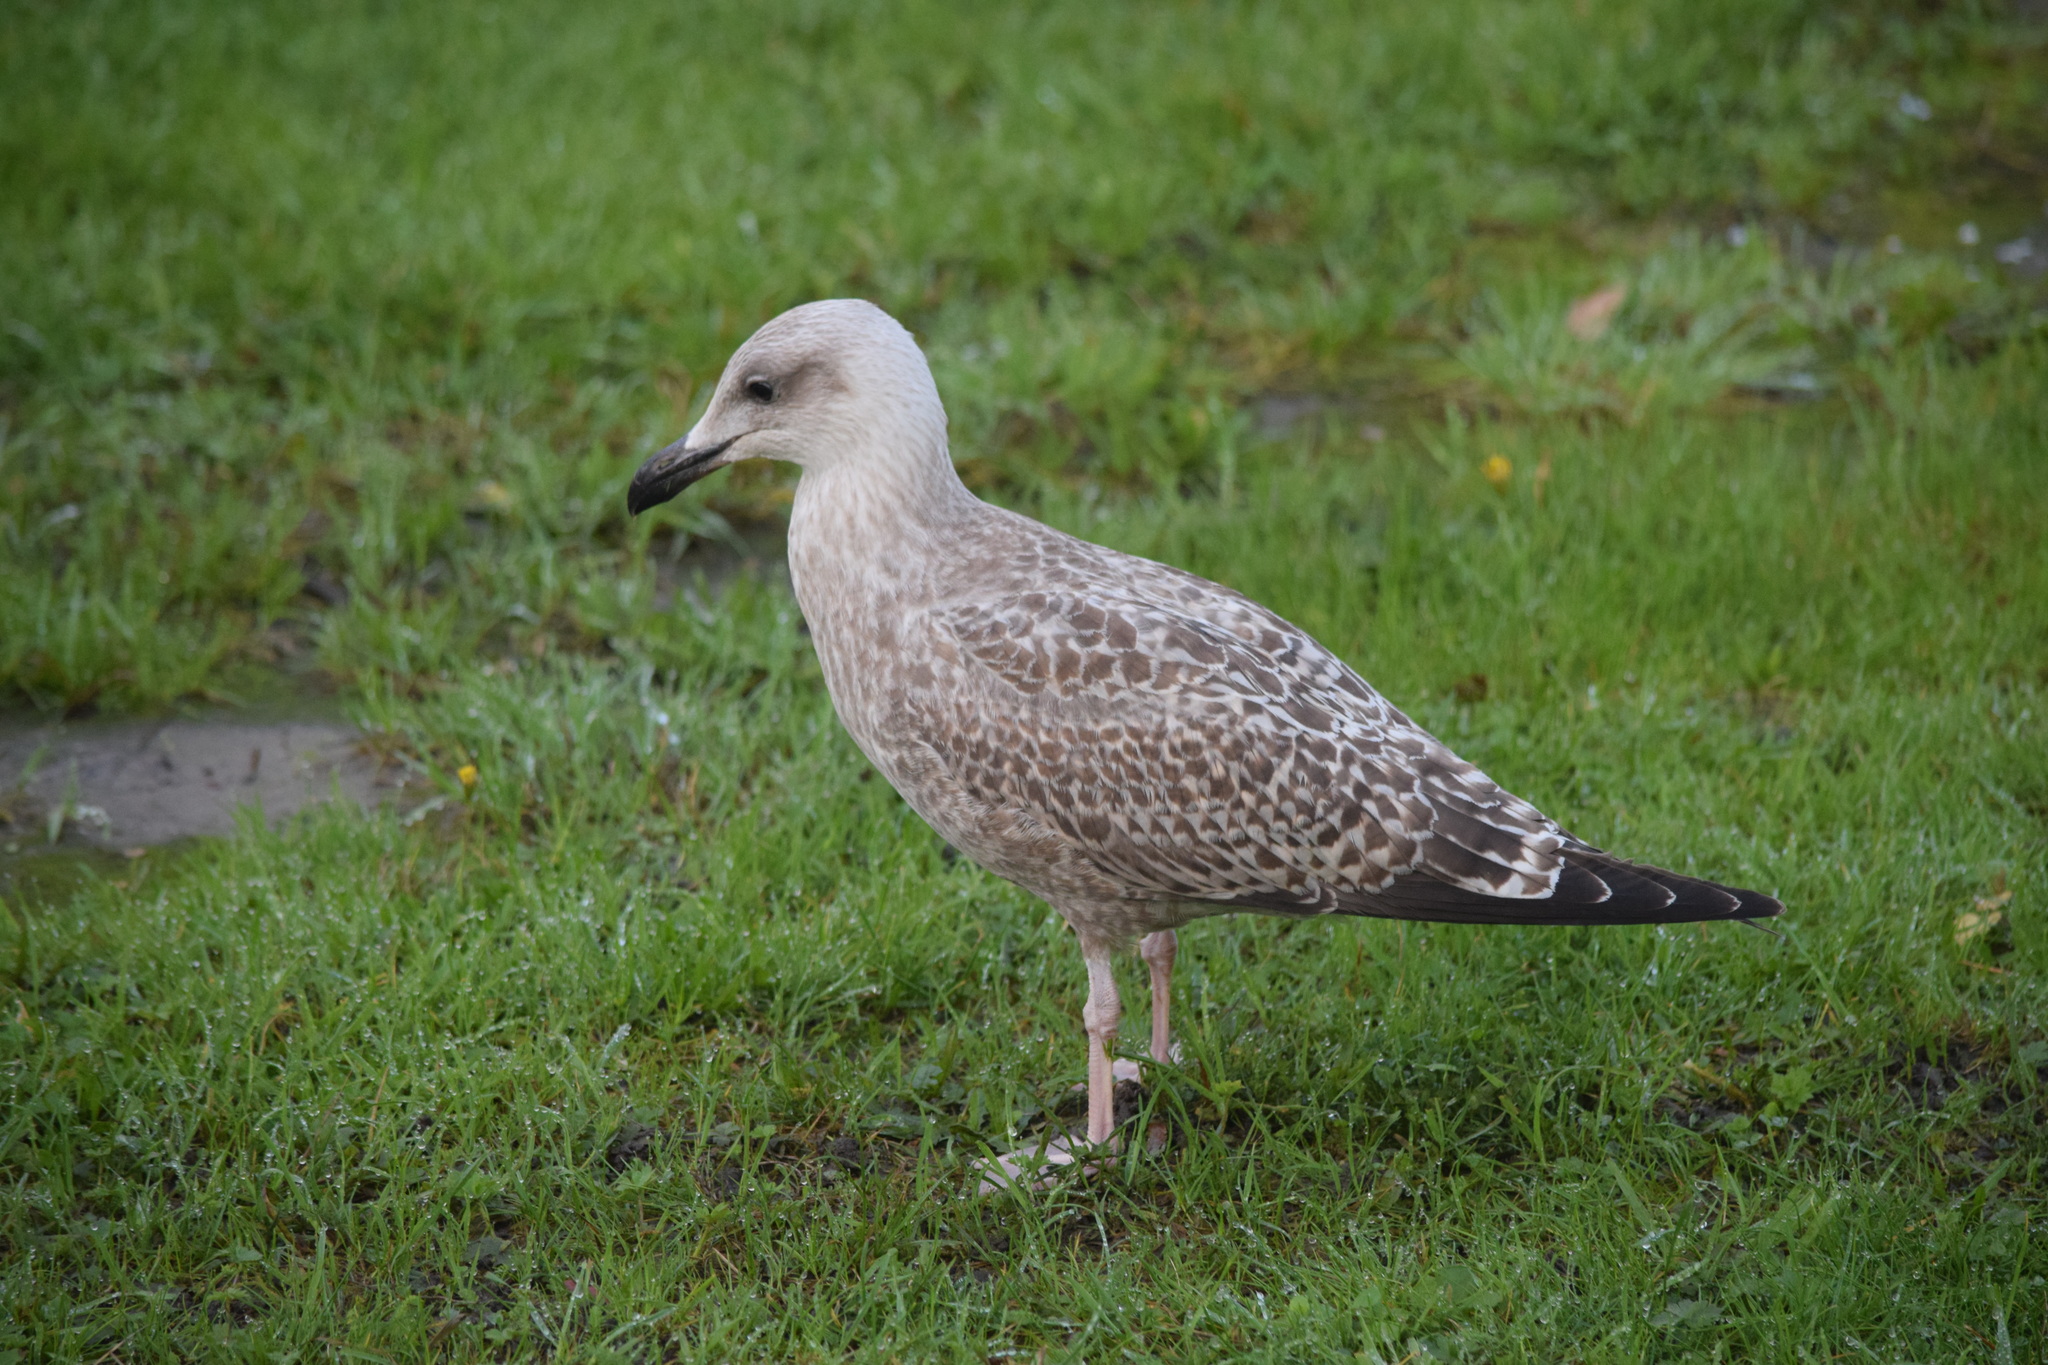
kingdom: Animalia
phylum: Chordata
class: Aves
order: Charadriiformes
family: Laridae
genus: Larus
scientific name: Larus argentatus
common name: Herring gull
